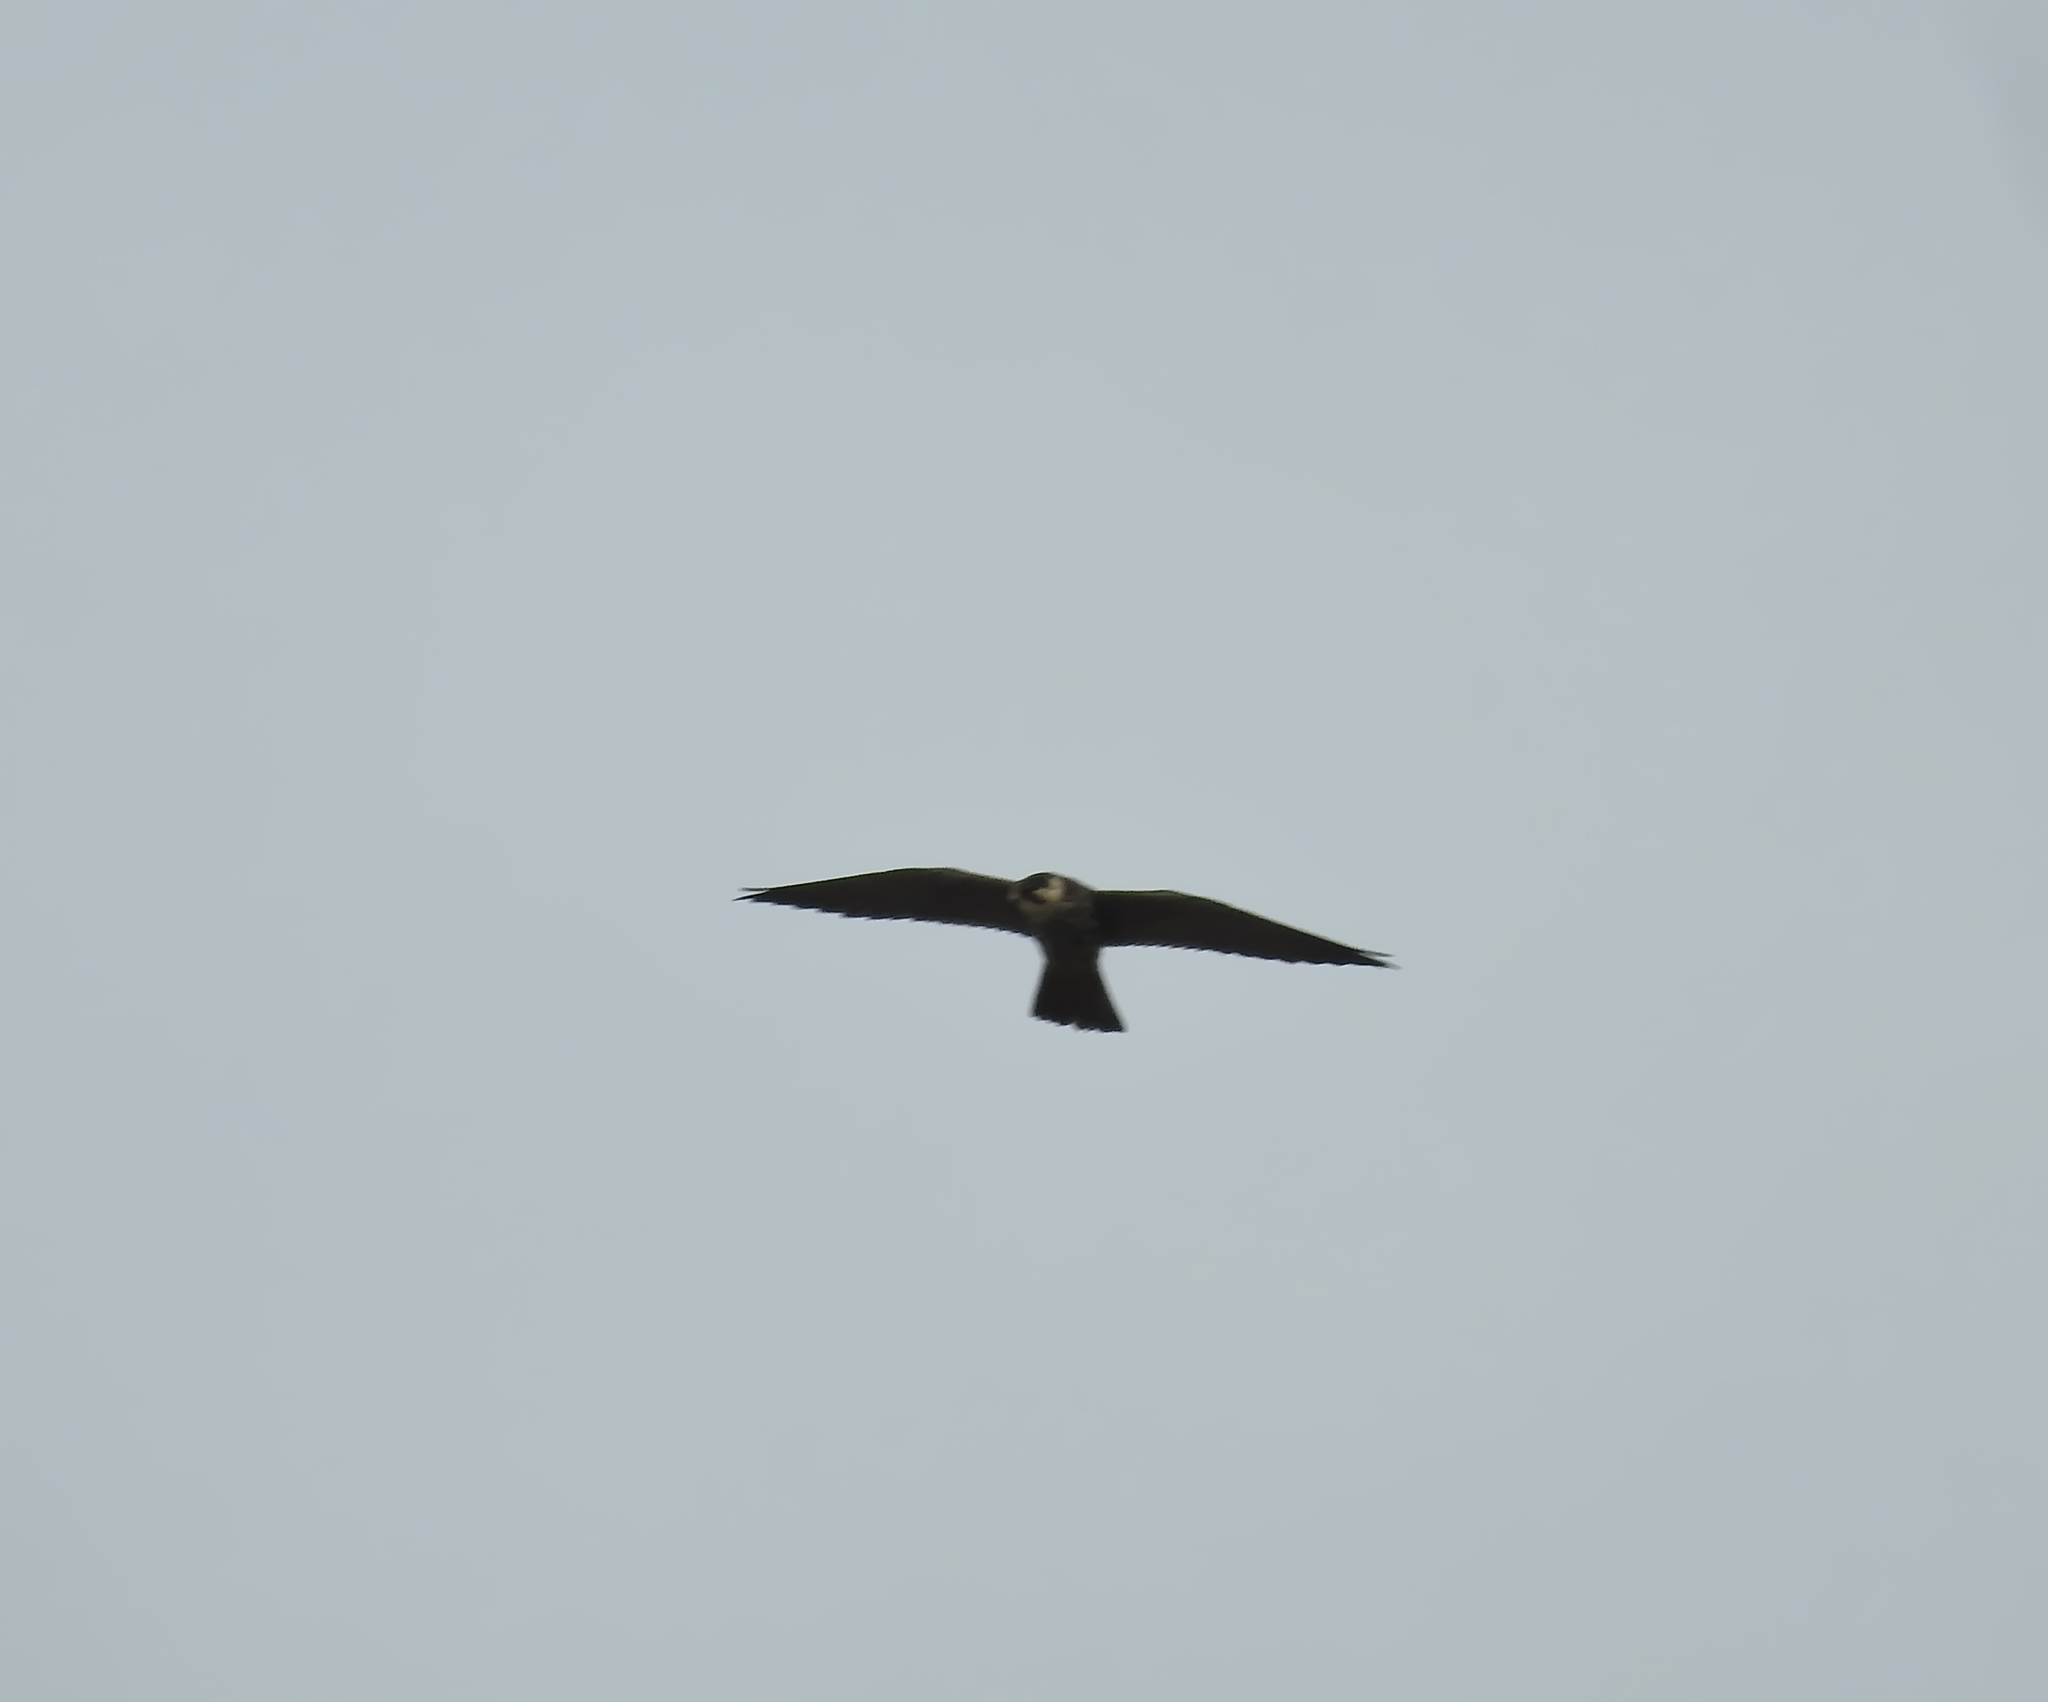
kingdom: Animalia
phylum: Chordata
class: Aves
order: Falconiformes
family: Falconidae
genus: Falco
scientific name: Falco subbuteo
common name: Eurasian hobby
